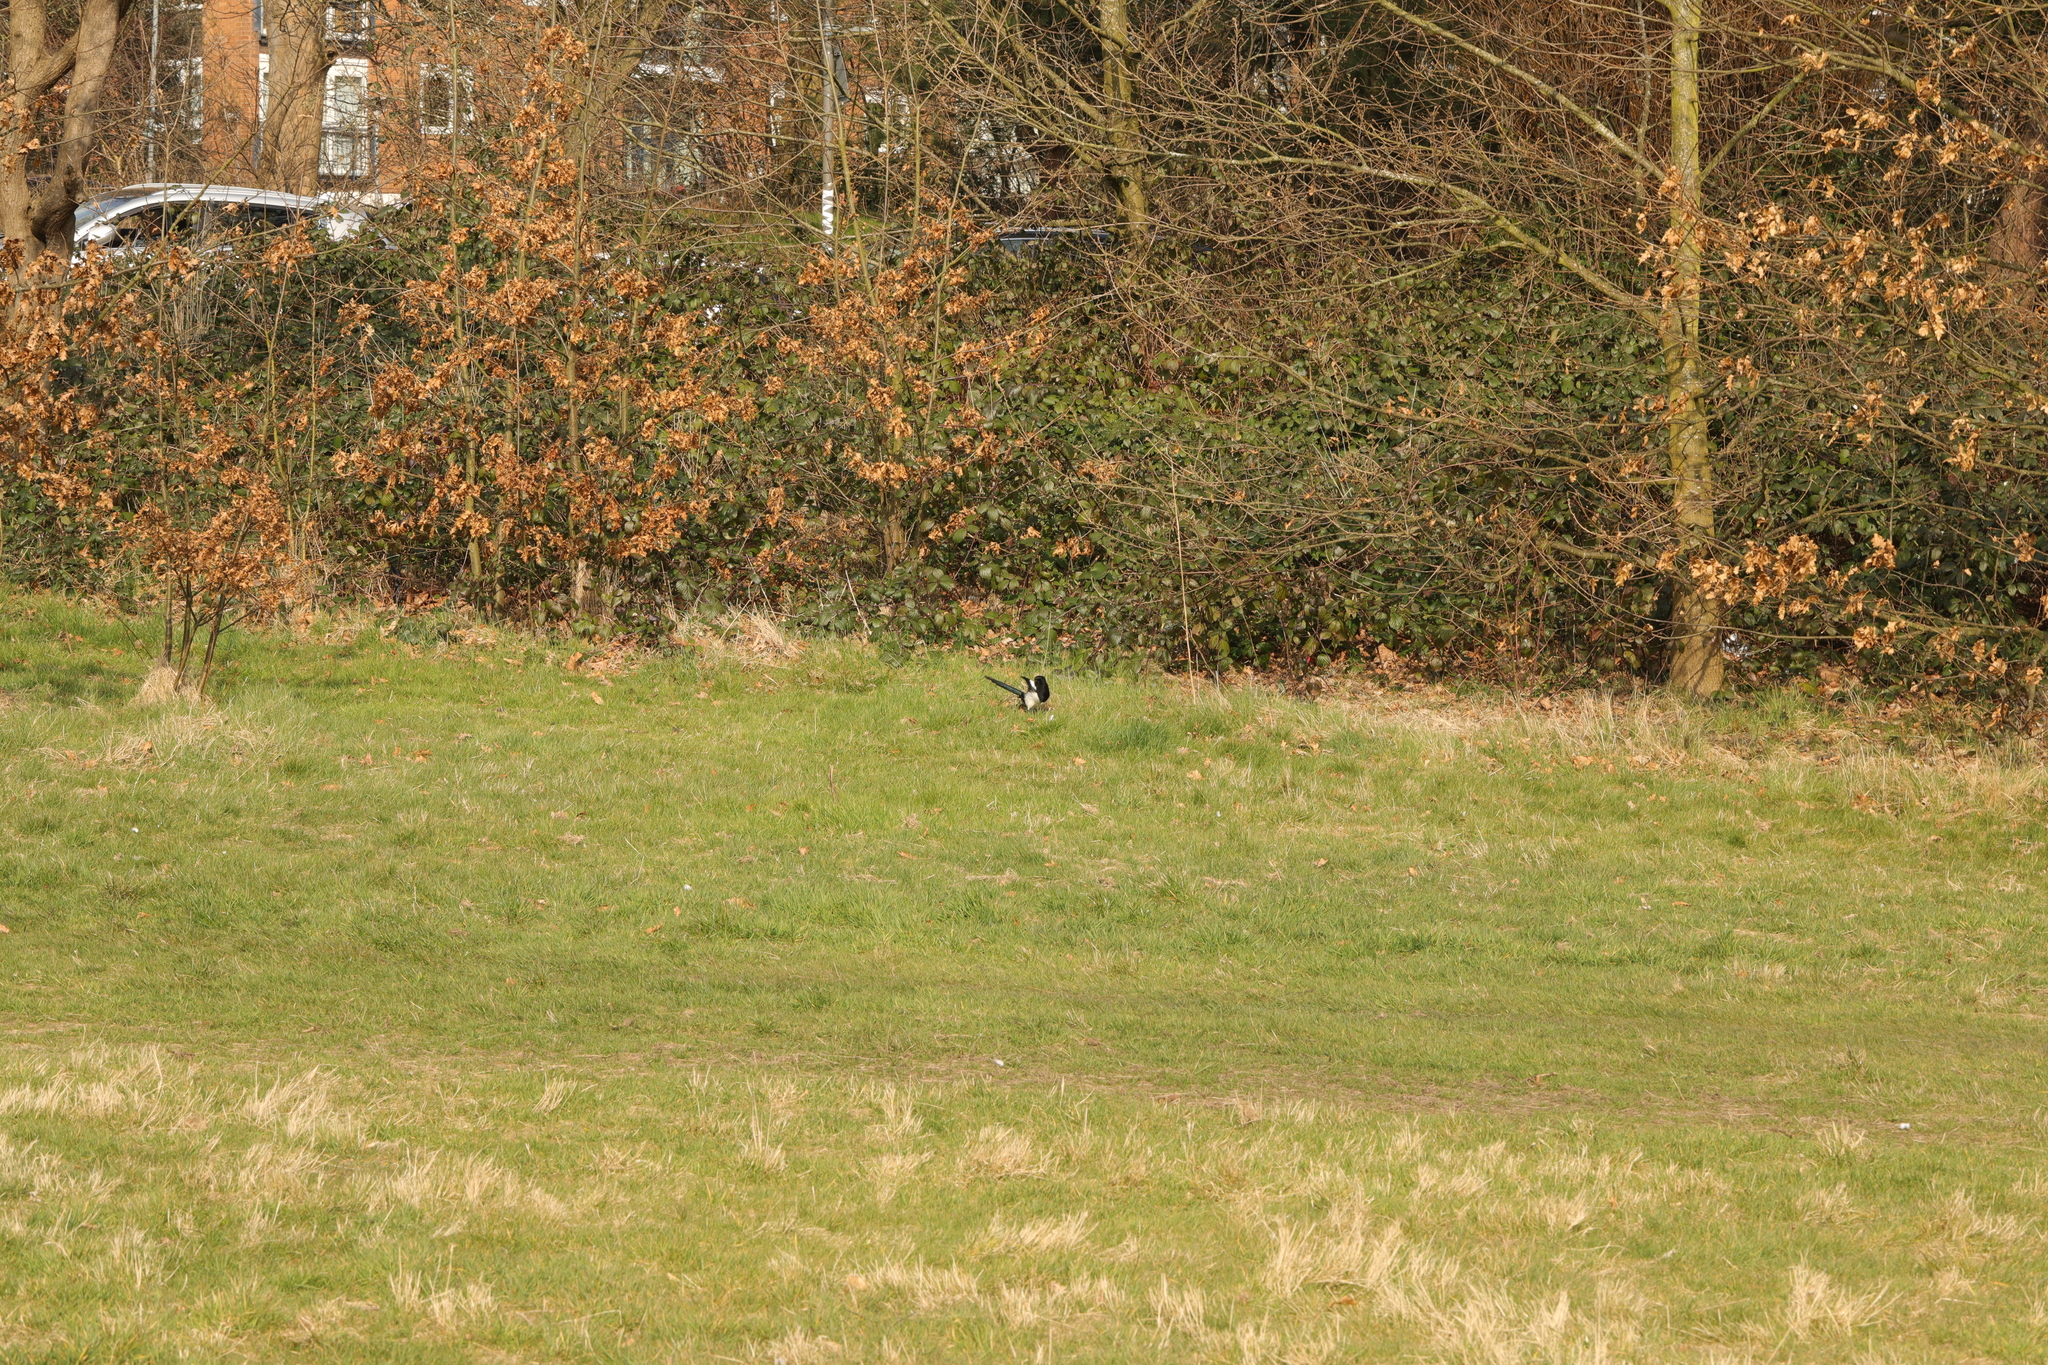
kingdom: Animalia
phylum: Chordata
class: Aves
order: Passeriformes
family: Corvidae
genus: Pica
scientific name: Pica pica
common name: Eurasian magpie
